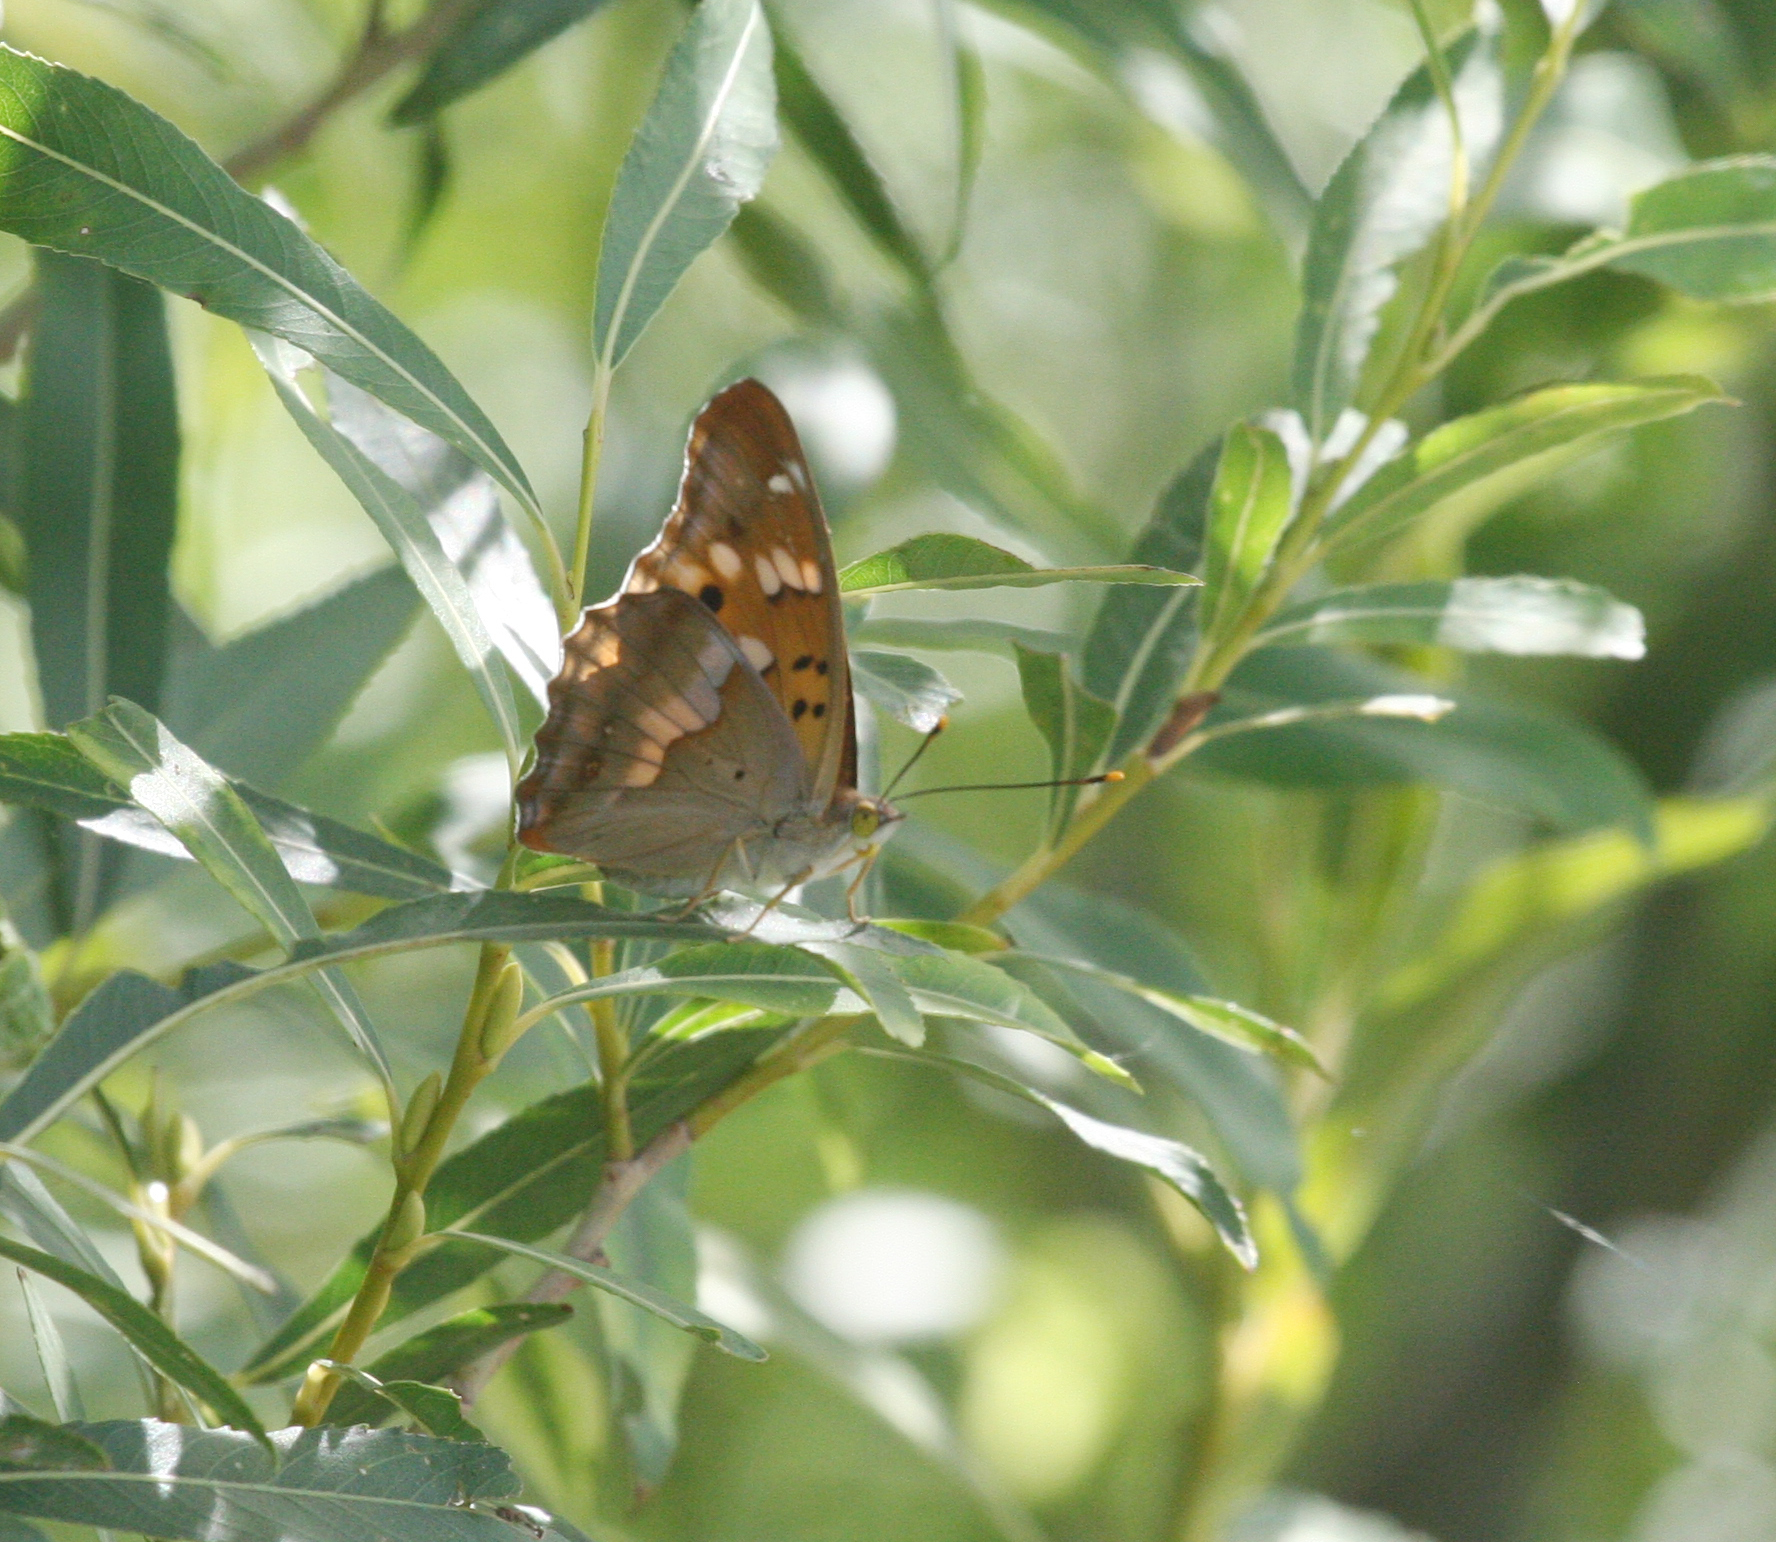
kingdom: Animalia
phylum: Arthropoda
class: Insecta
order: Lepidoptera
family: Nymphalidae
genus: Apatura
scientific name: Apatura ilia
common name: Lesser purple emperor
